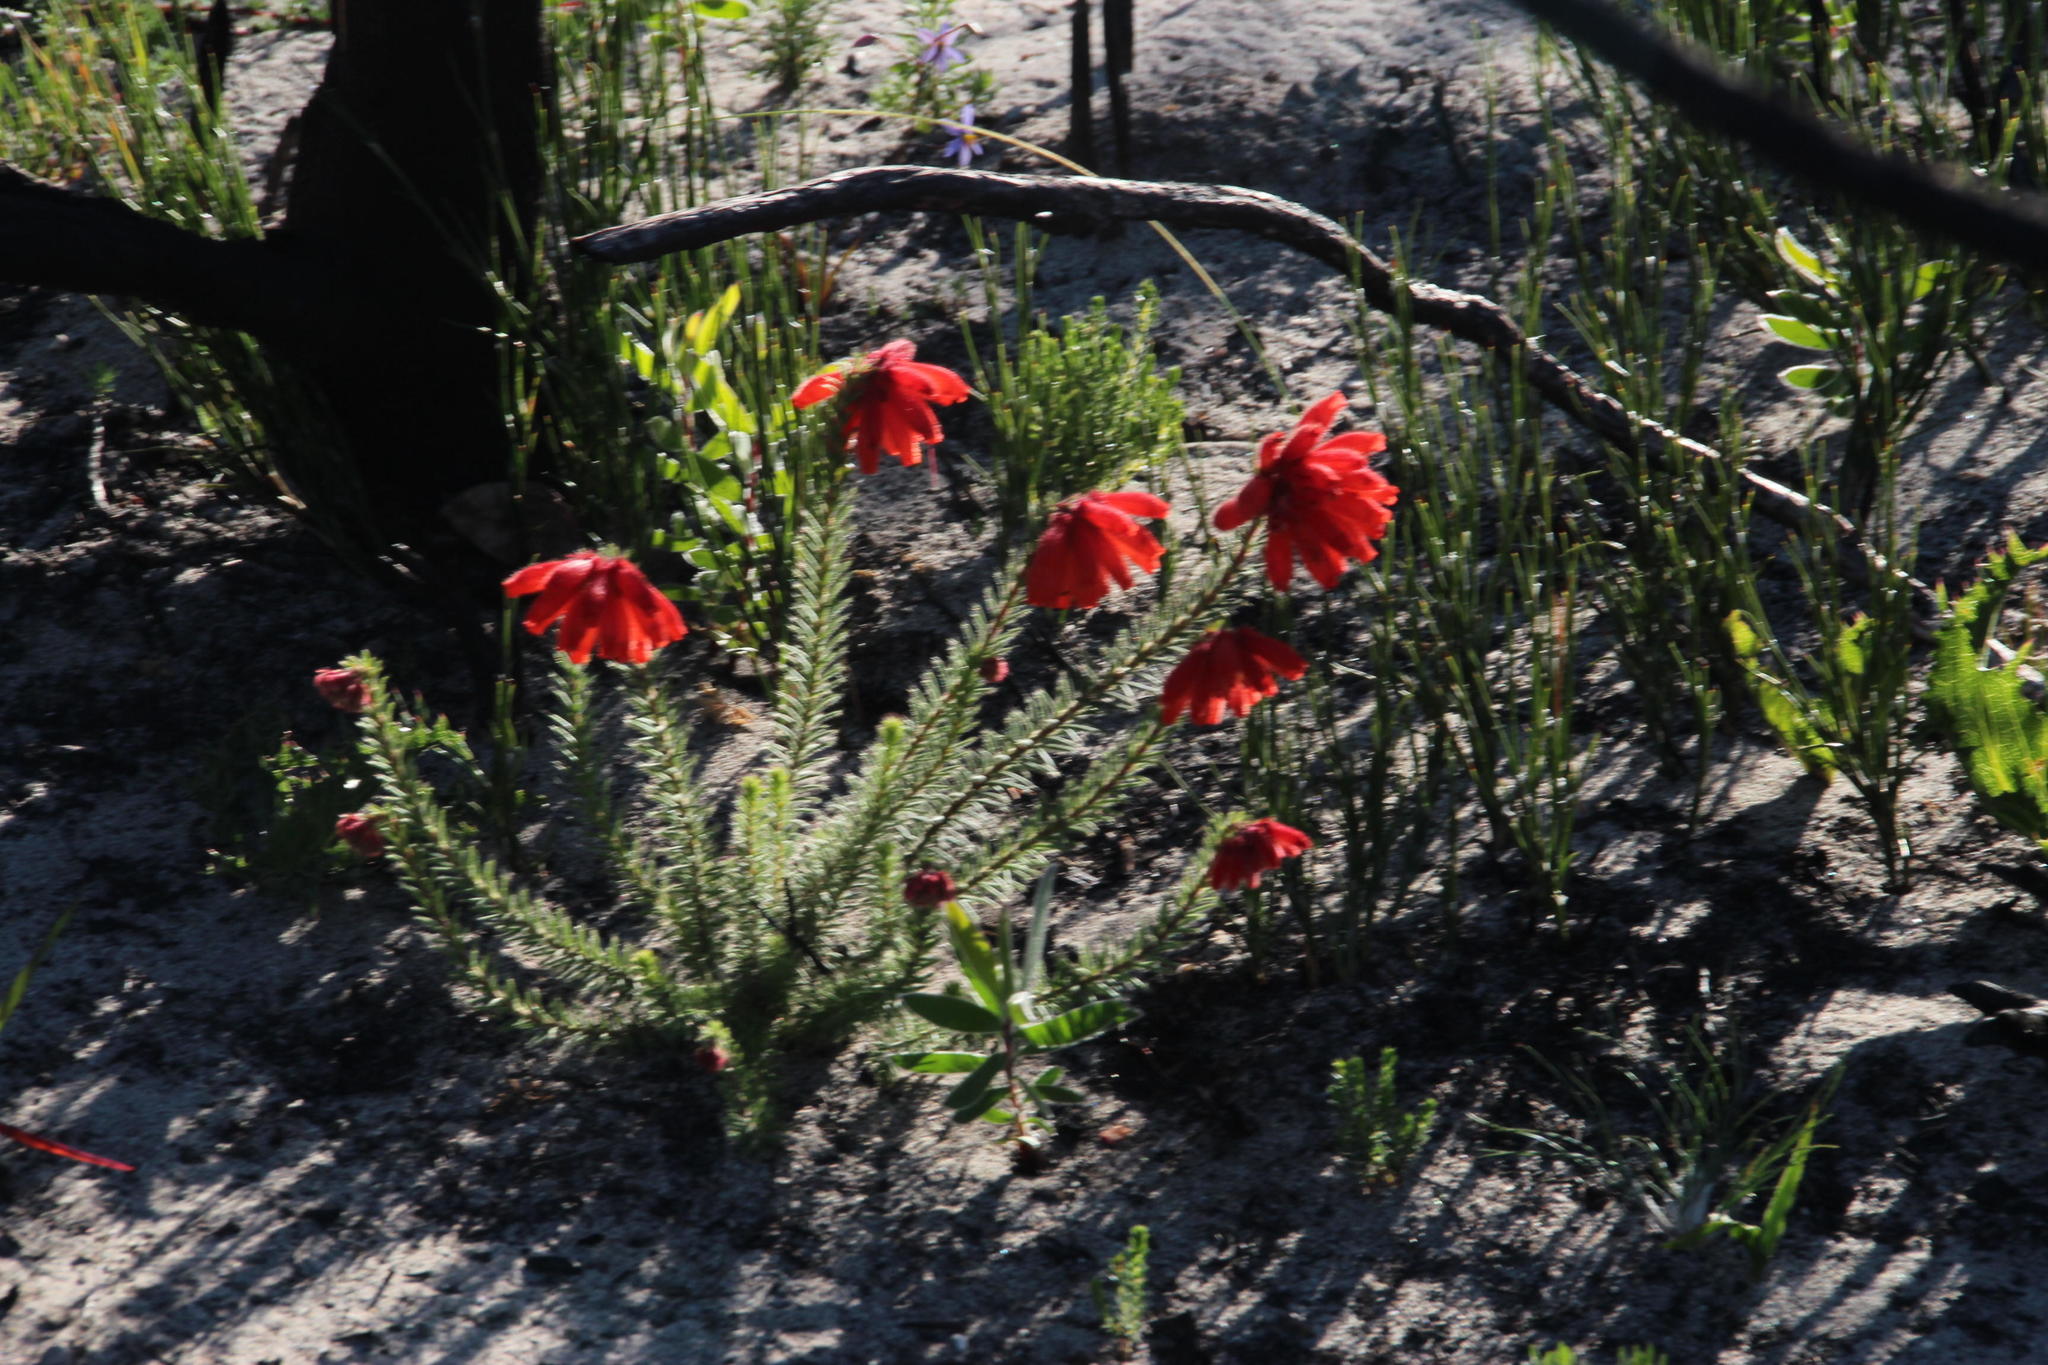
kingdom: Plantae
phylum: Tracheophyta
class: Magnoliopsida
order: Ericales
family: Ericaceae
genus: Erica
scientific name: Erica cerinthoides
